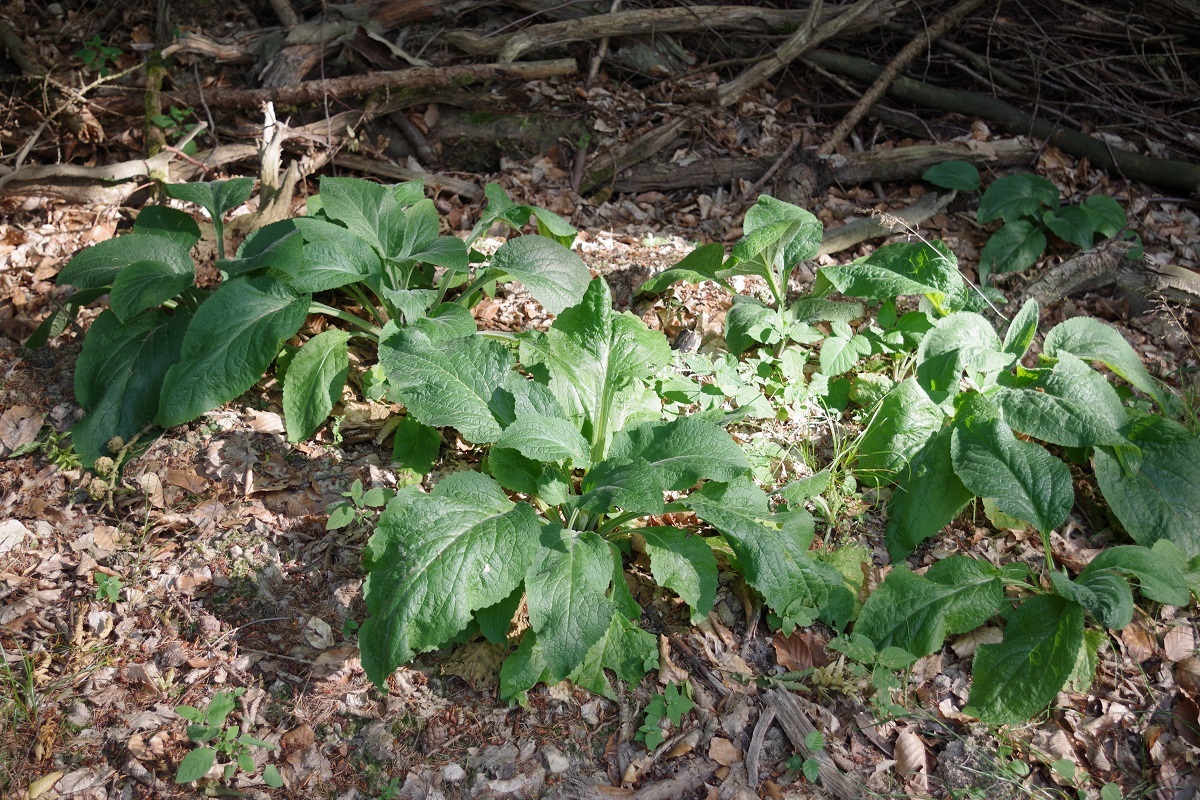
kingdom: Plantae
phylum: Tracheophyta
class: Magnoliopsida
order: Lamiales
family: Plantaginaceae
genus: Digitalis
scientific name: Digitalis purpurea
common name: Foxglove
